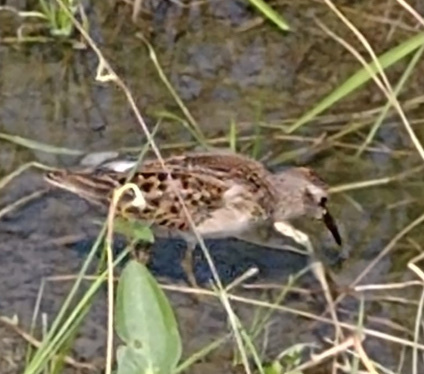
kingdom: Animalia
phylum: Chordata
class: Aves
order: Charadriiformes
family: Scolopacidae
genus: Calidris
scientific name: Calidris minutilla
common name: Least sandpiper
